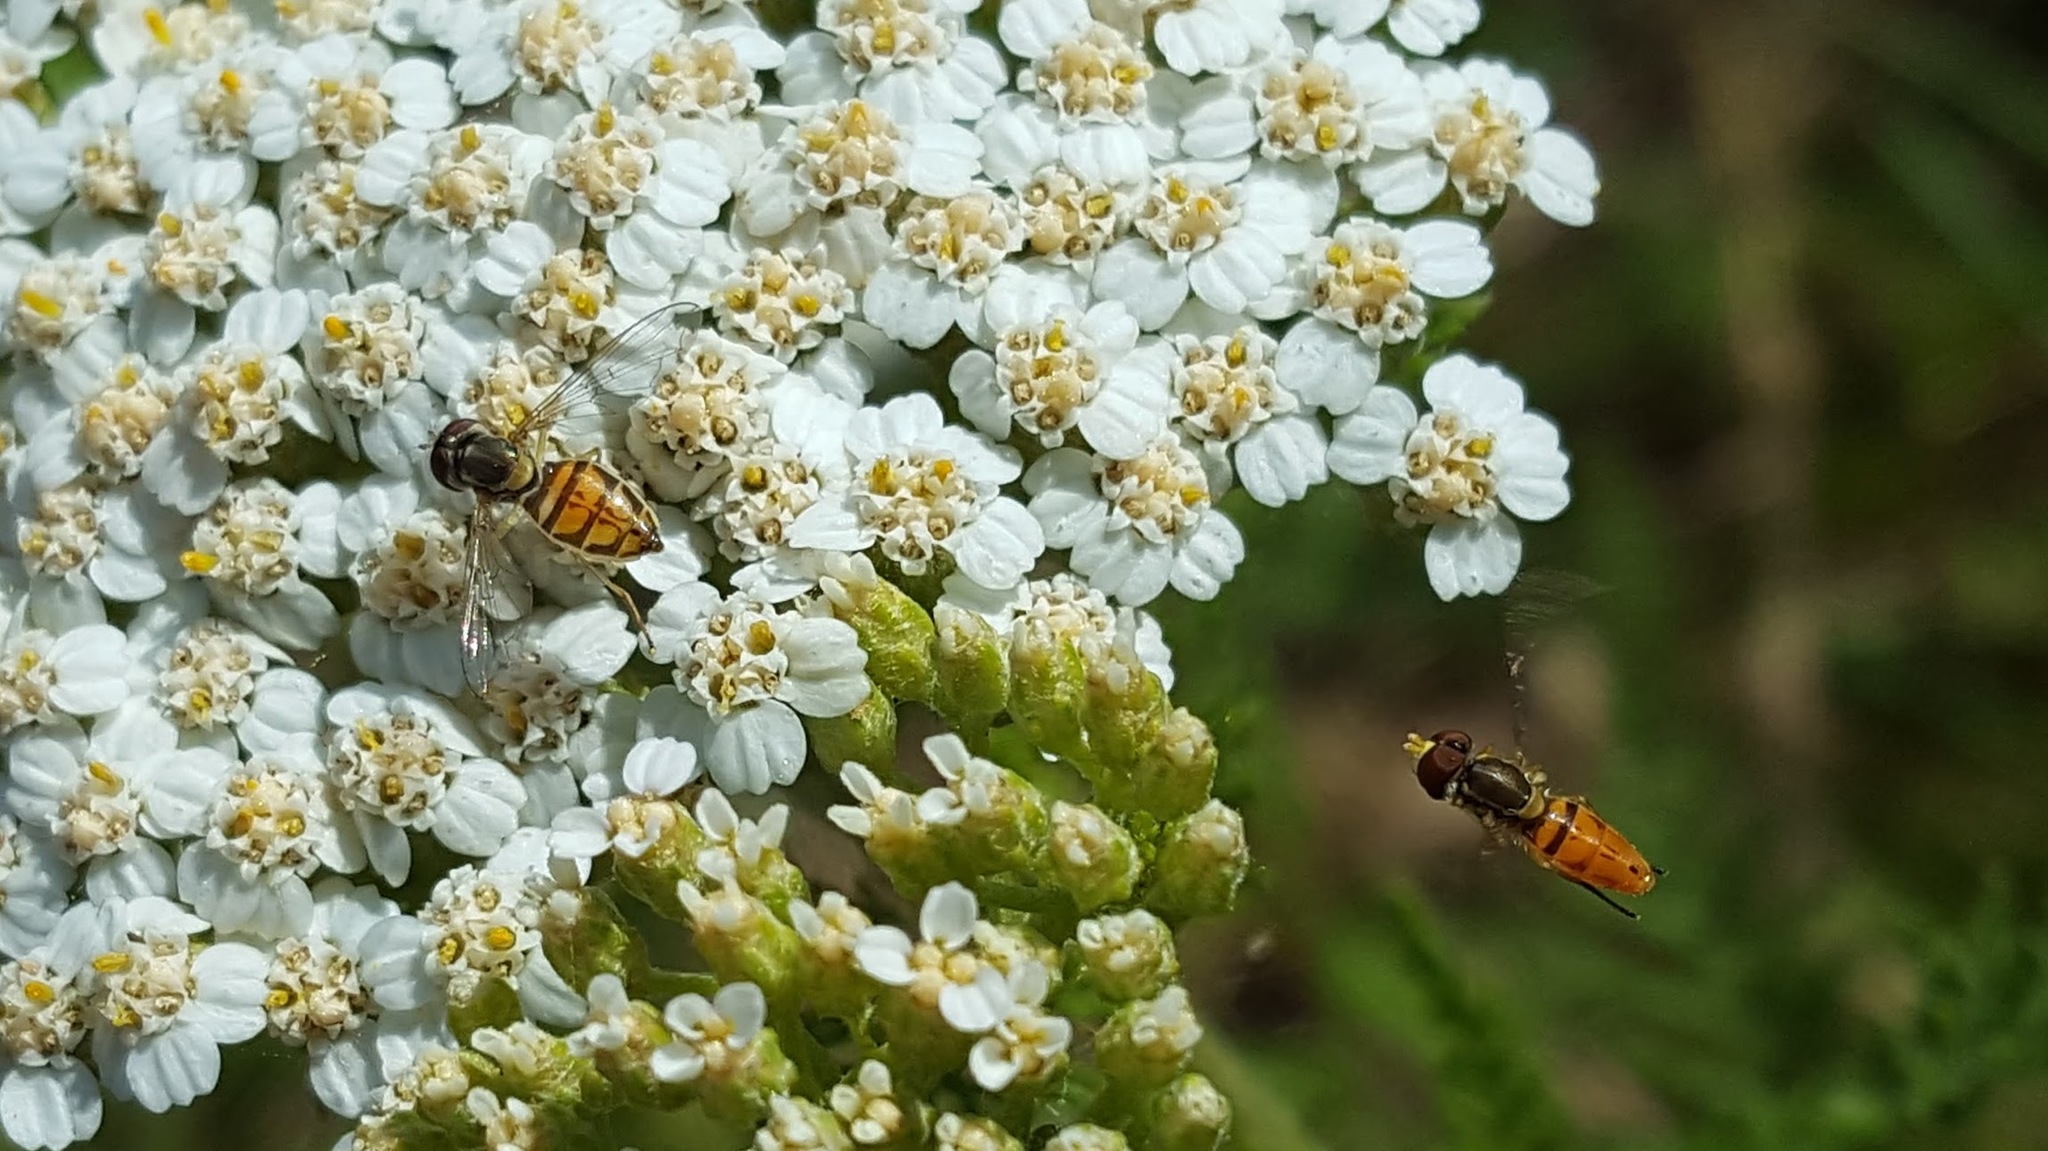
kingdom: Animalia
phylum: Arthropoda
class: Insecta
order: Diptera
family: Syrphidae
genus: Toxomerus
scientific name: Toxomerus marginatus
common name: Syrphid fly
